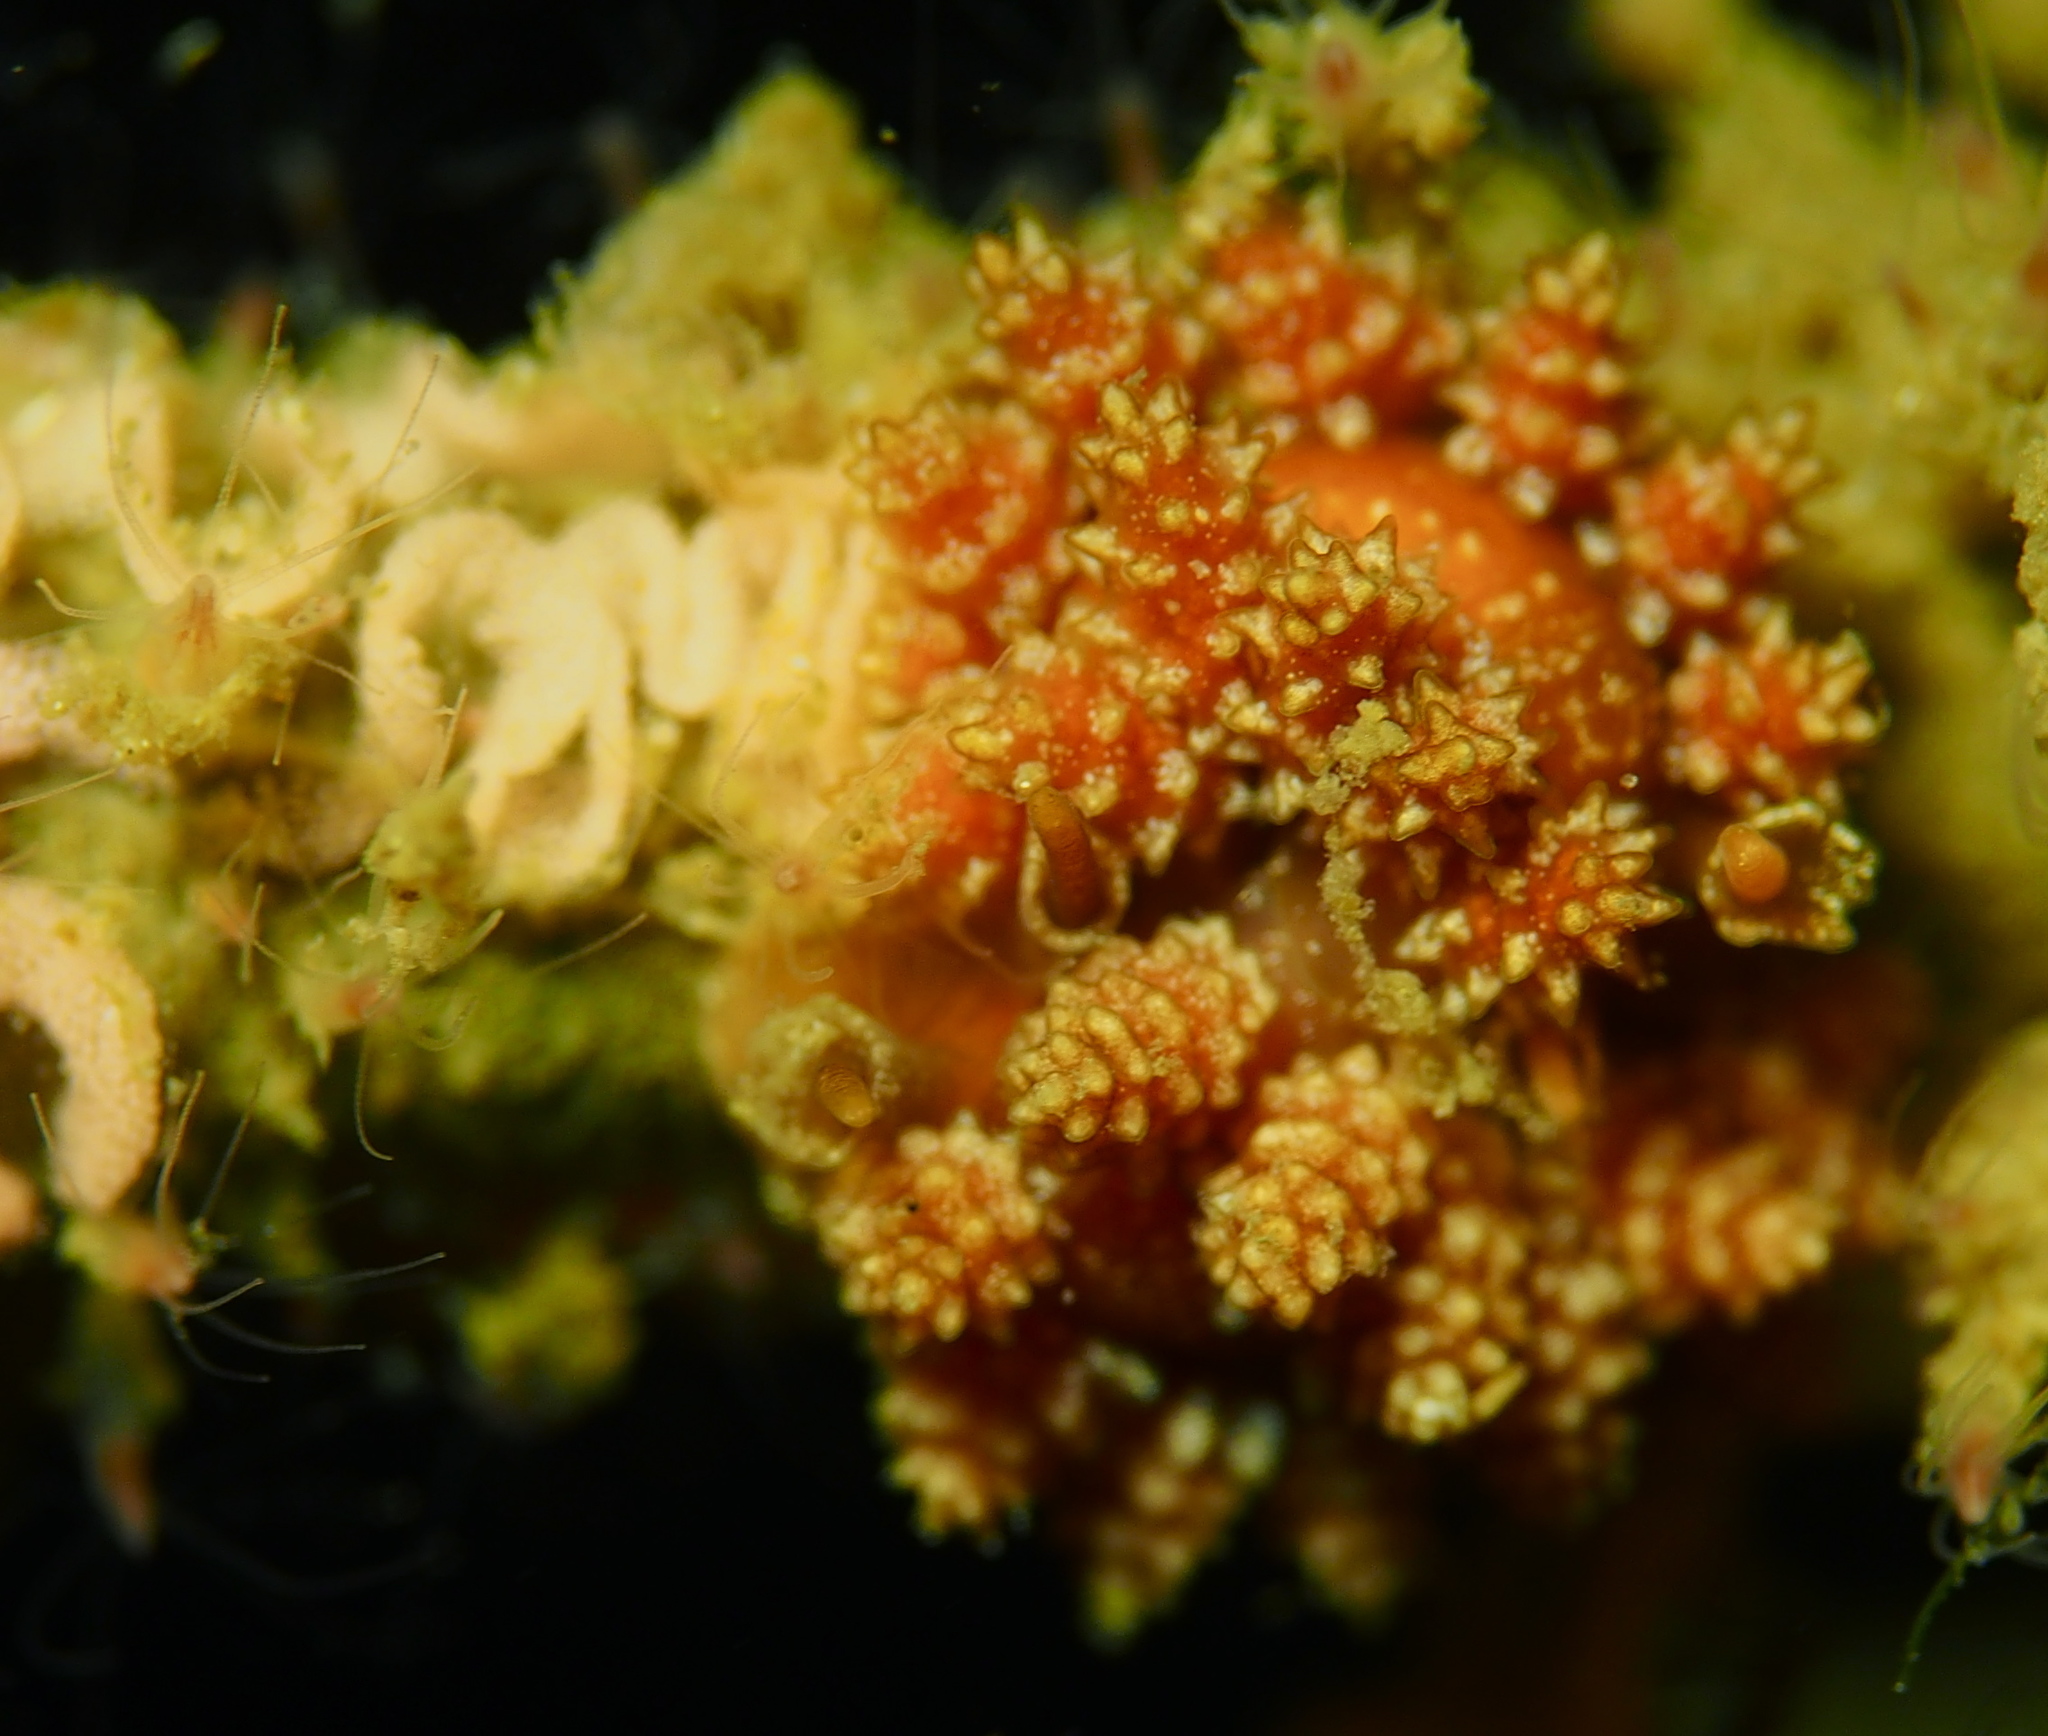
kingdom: Animalia
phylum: Mollusca
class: Gastropoda
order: Nudibranchia
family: Dotidae
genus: Doto
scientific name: Doto fragilis
